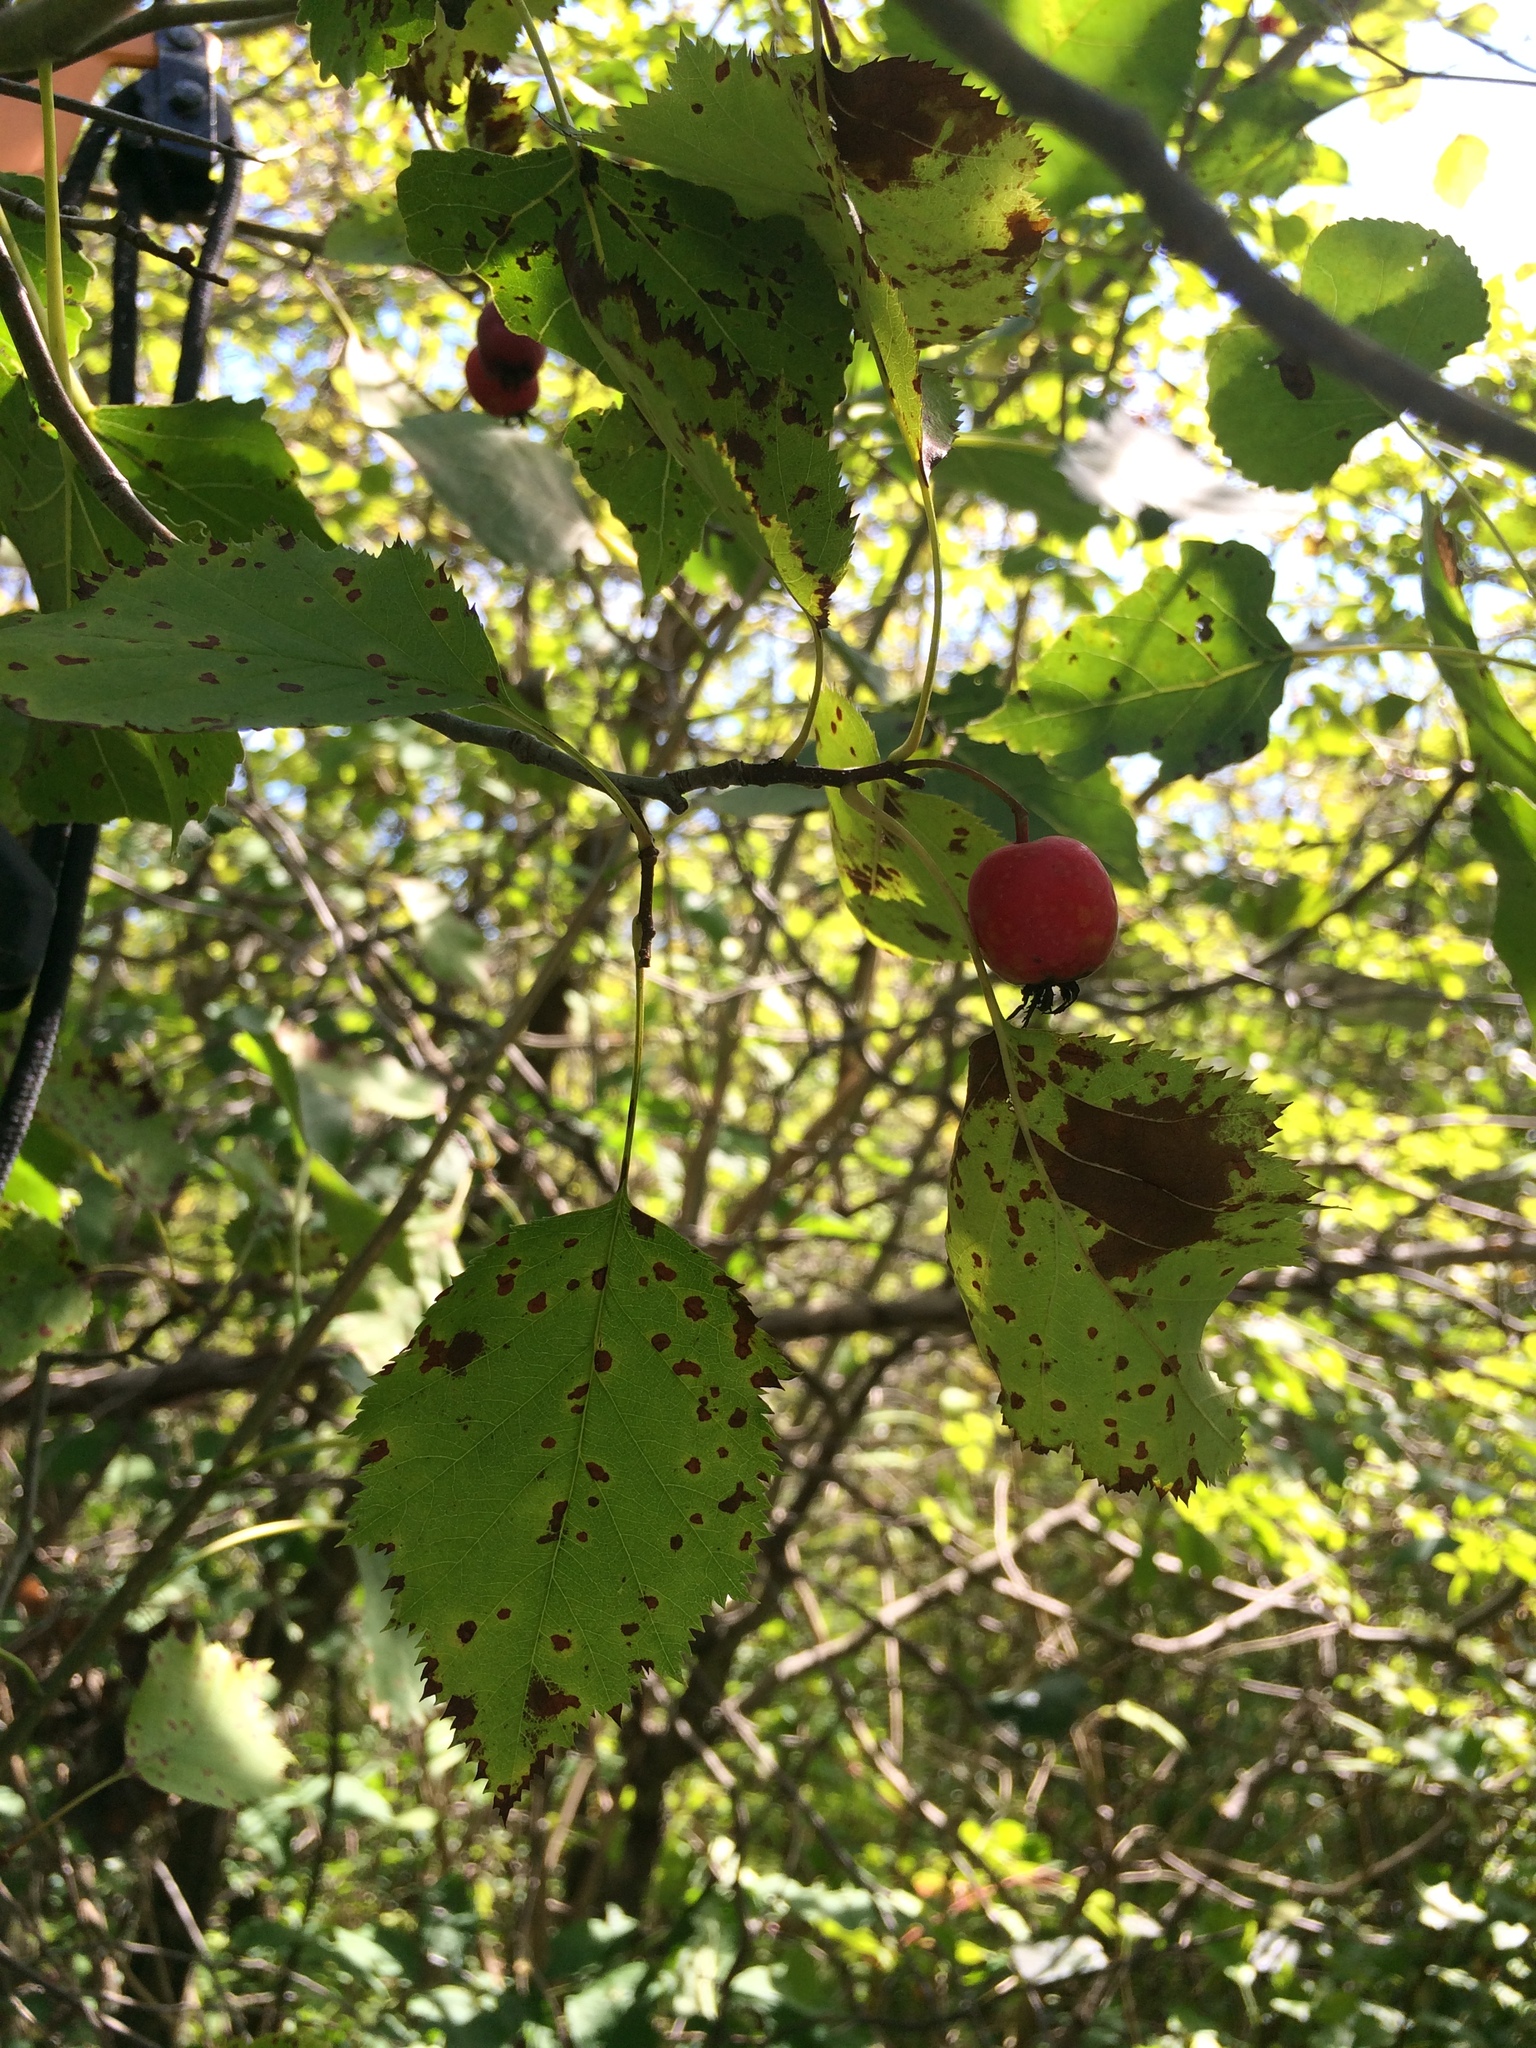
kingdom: Plantae
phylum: Tracheophyta
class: Magnoliopsida
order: Rosales
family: Rosaceae
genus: Crataegus
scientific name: Crataegus holmesiana
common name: Holmes' hawthorn
